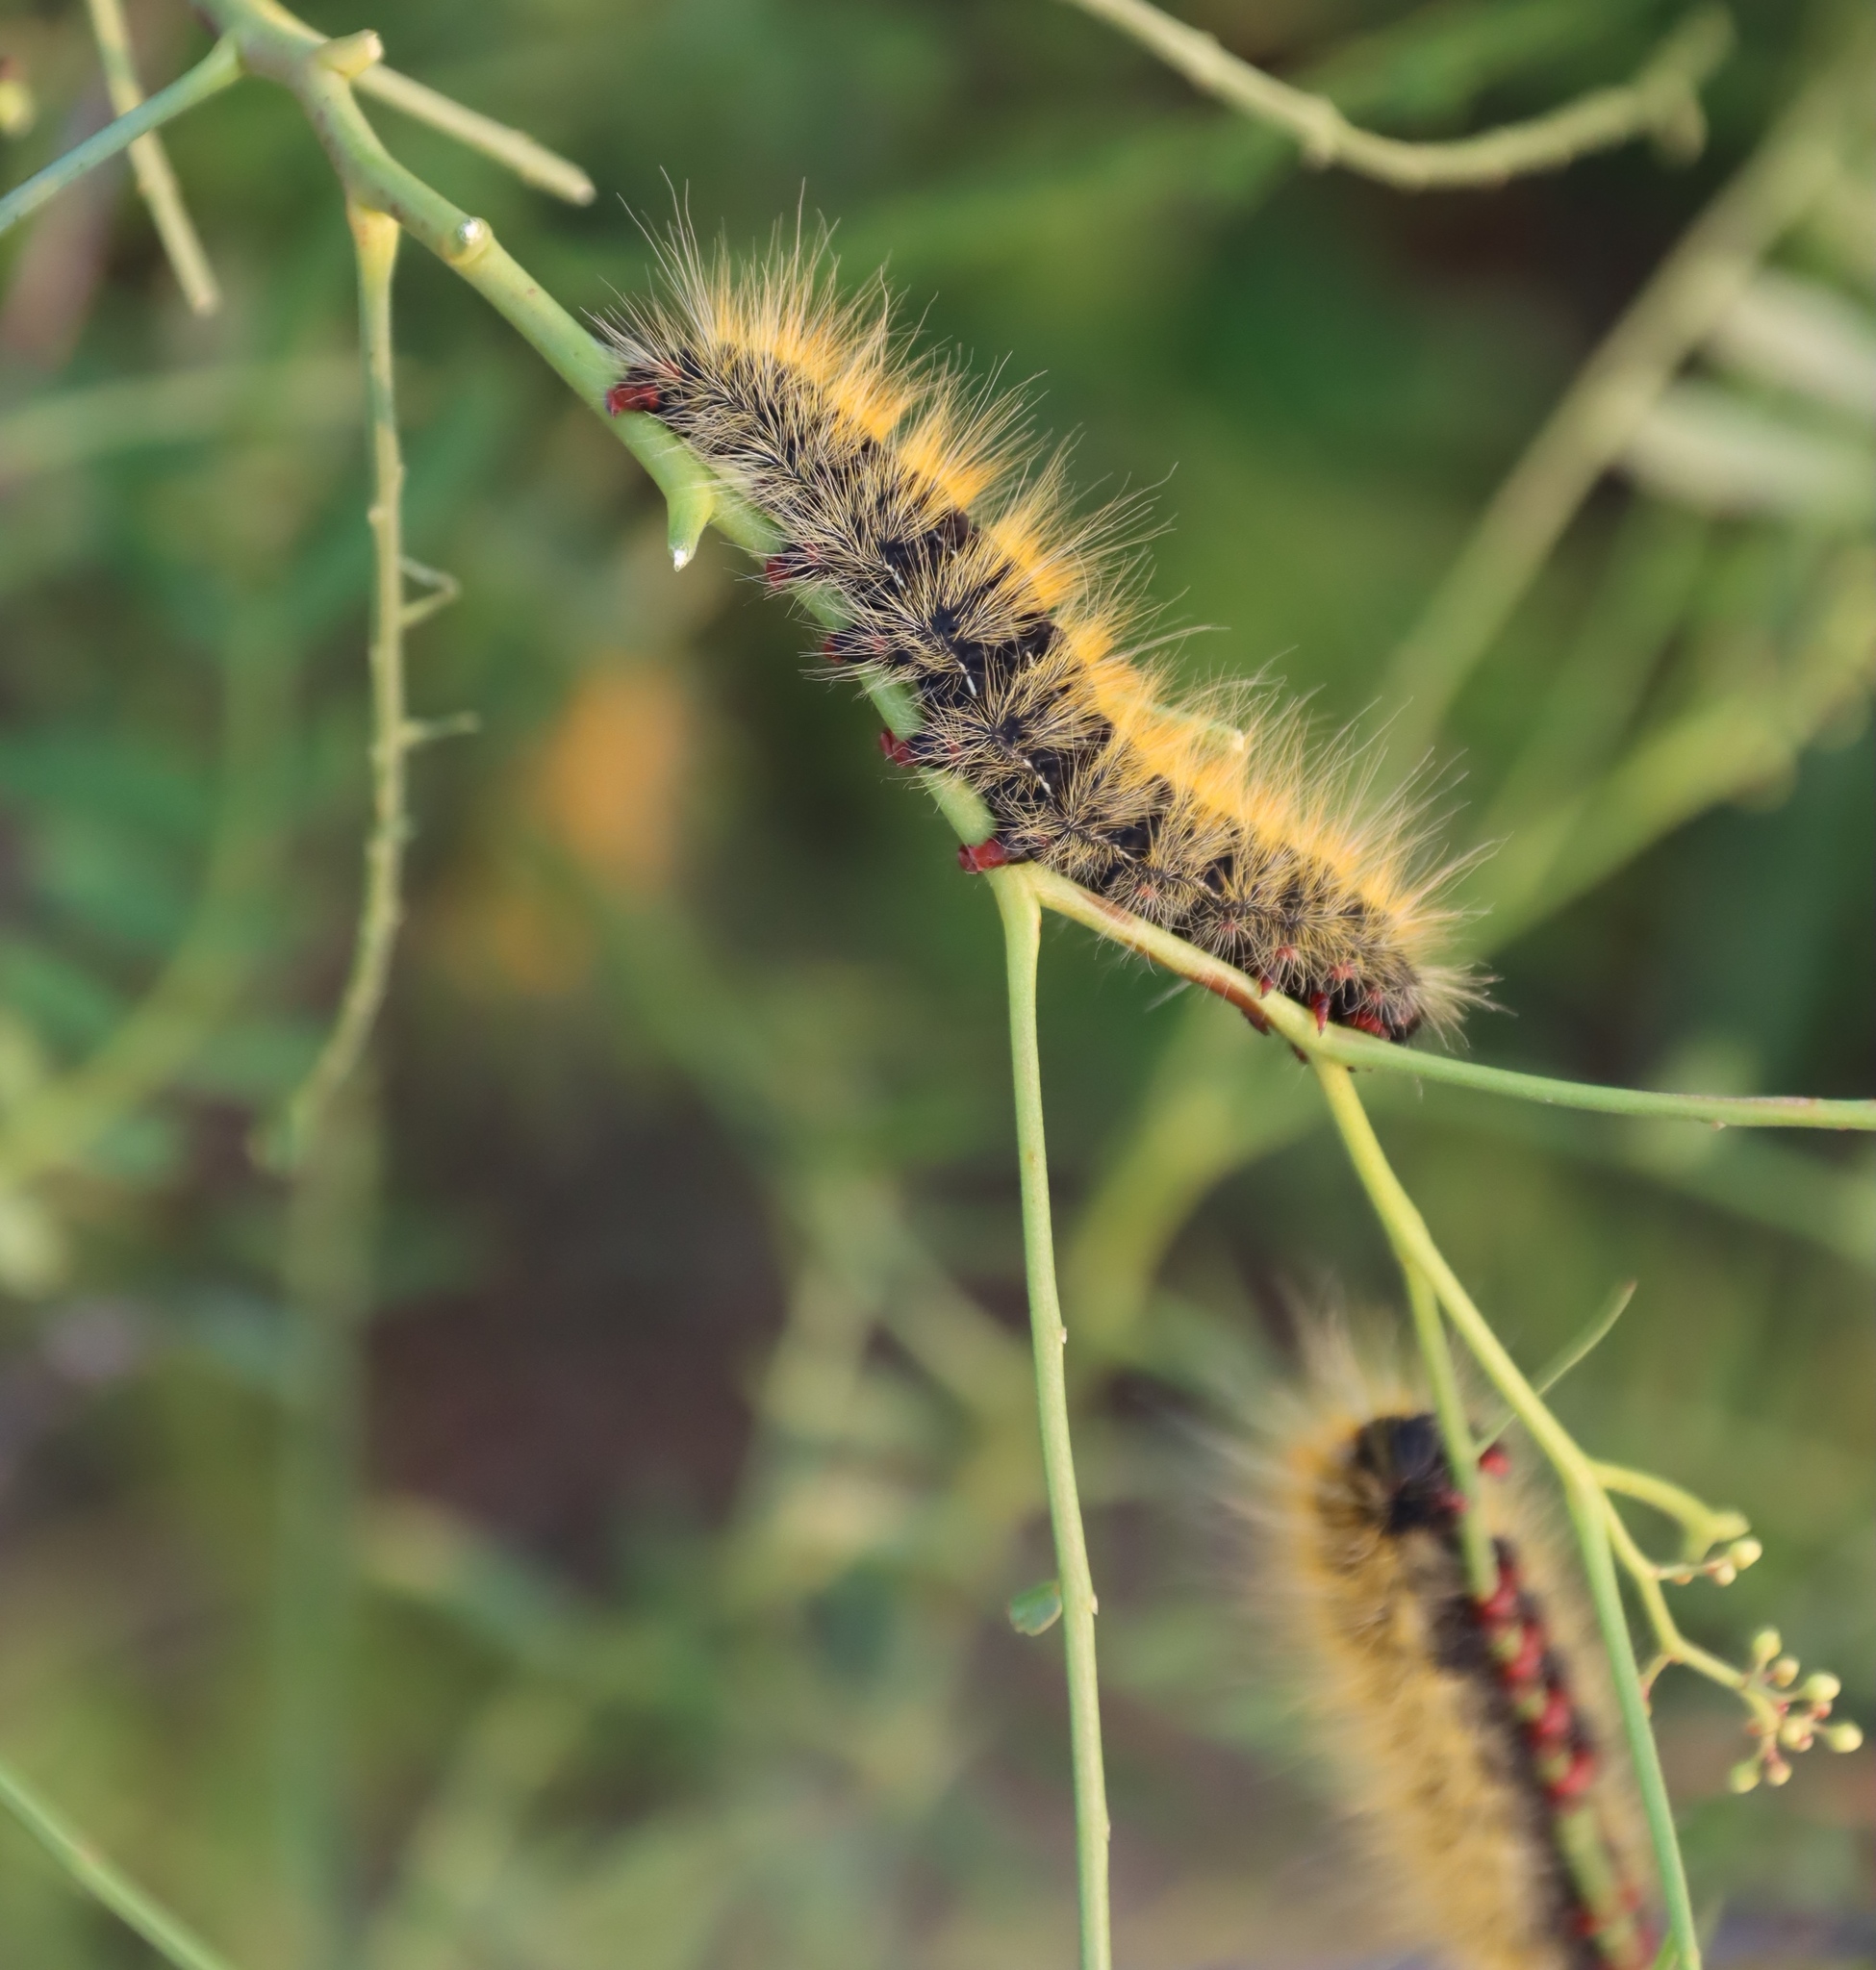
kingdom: Animalia
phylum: Arthropoda
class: Insecta
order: Lepidoptera
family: Lasiocampidae
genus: Bombycomorpha
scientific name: Bombycomorpha dukei
